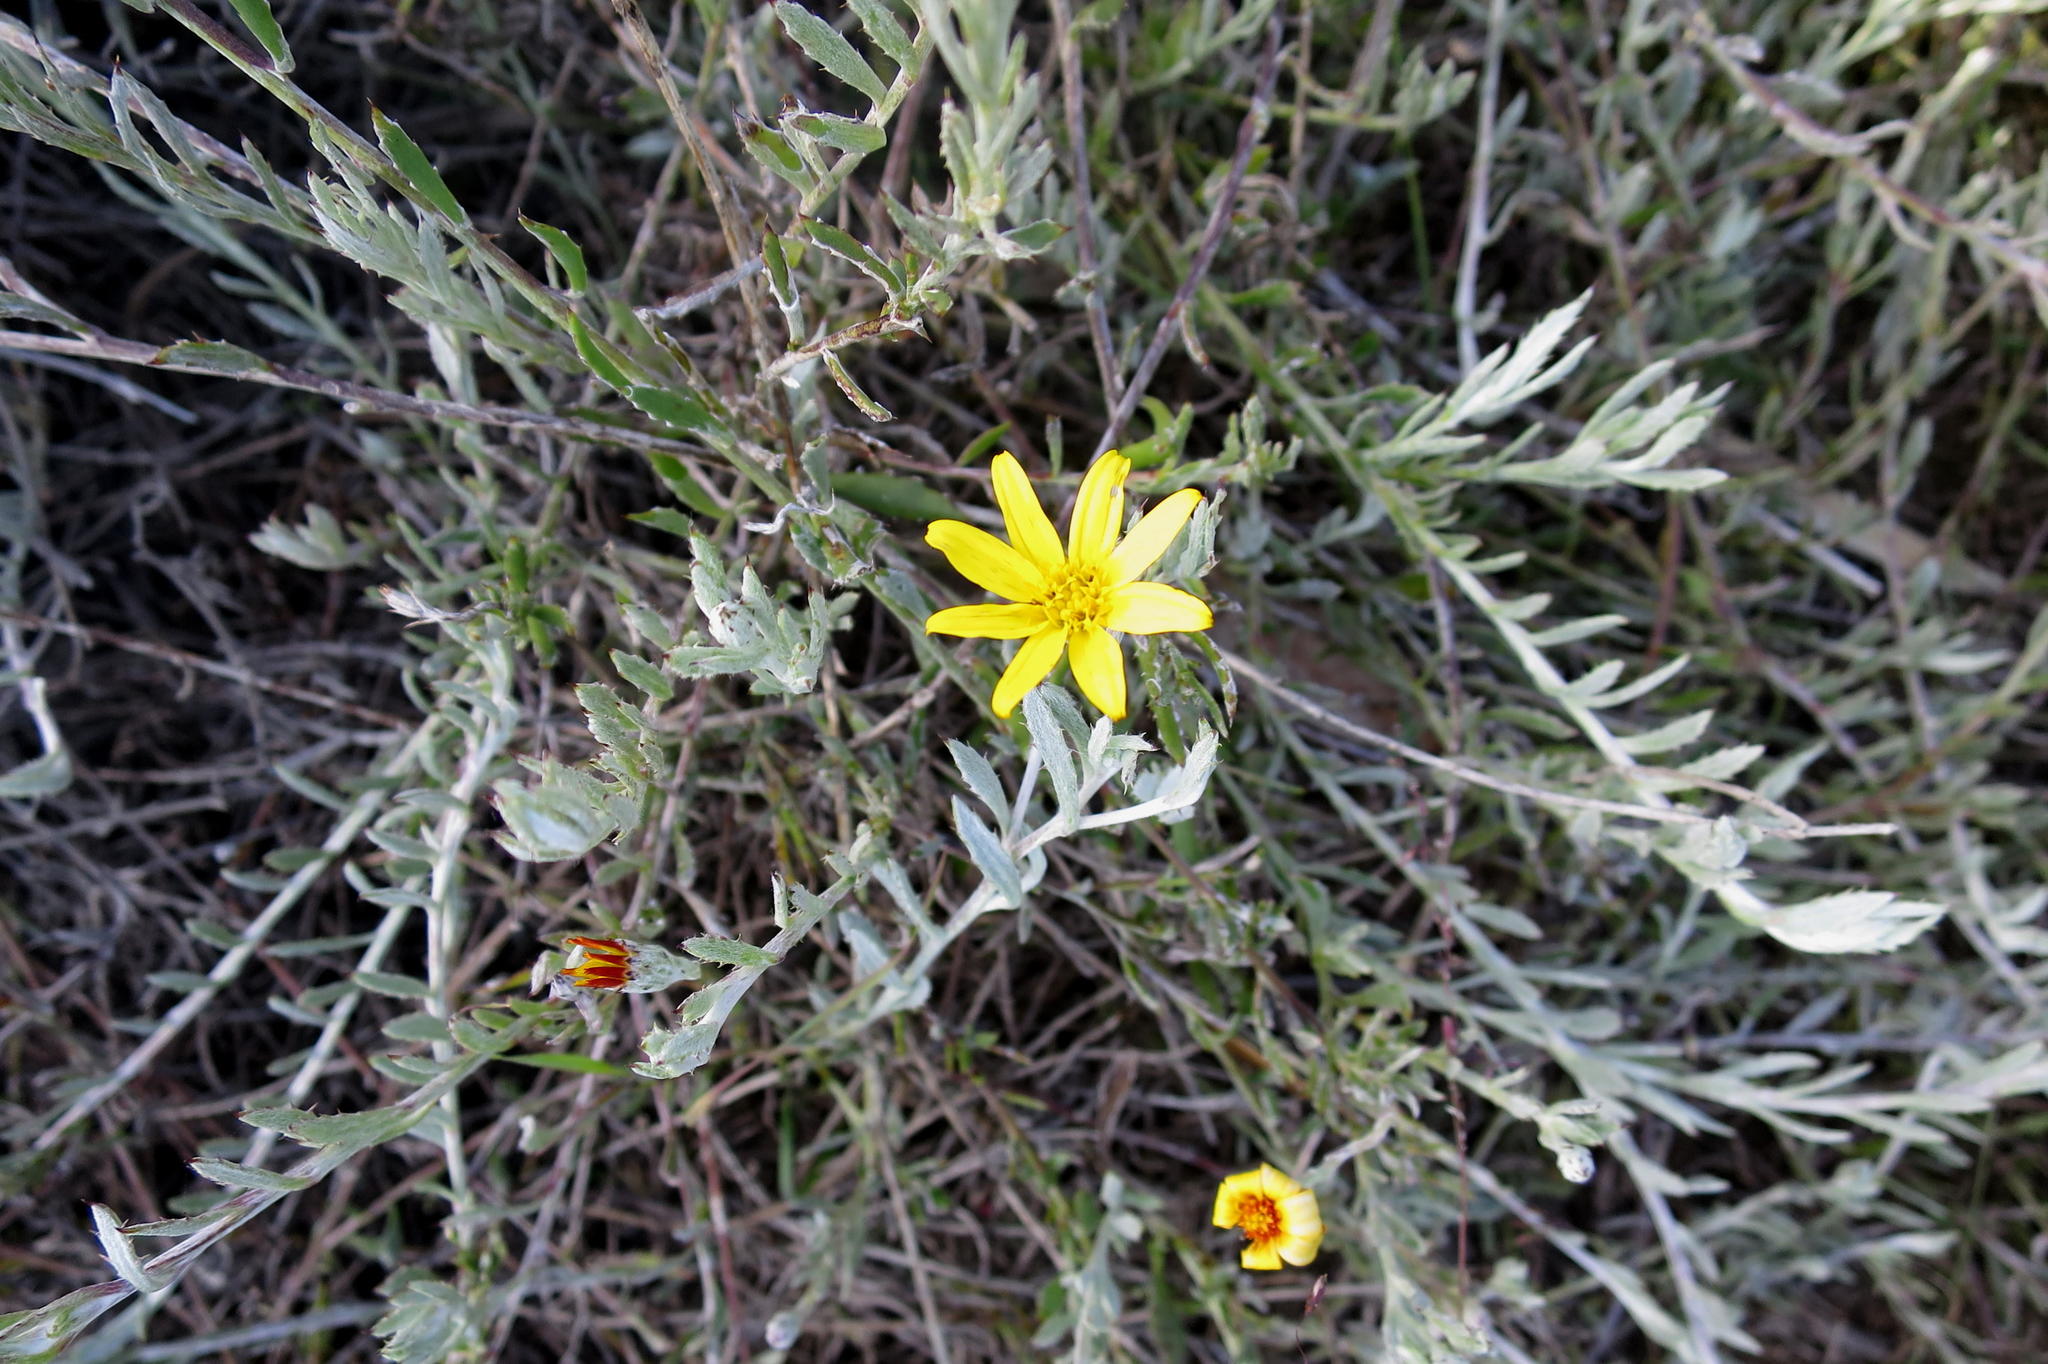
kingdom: Plantae
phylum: Tracheophyta
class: Magnoliopsida
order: Asterales
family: Asteraceae
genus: Osteospermum
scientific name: Osteospermum elsieae
